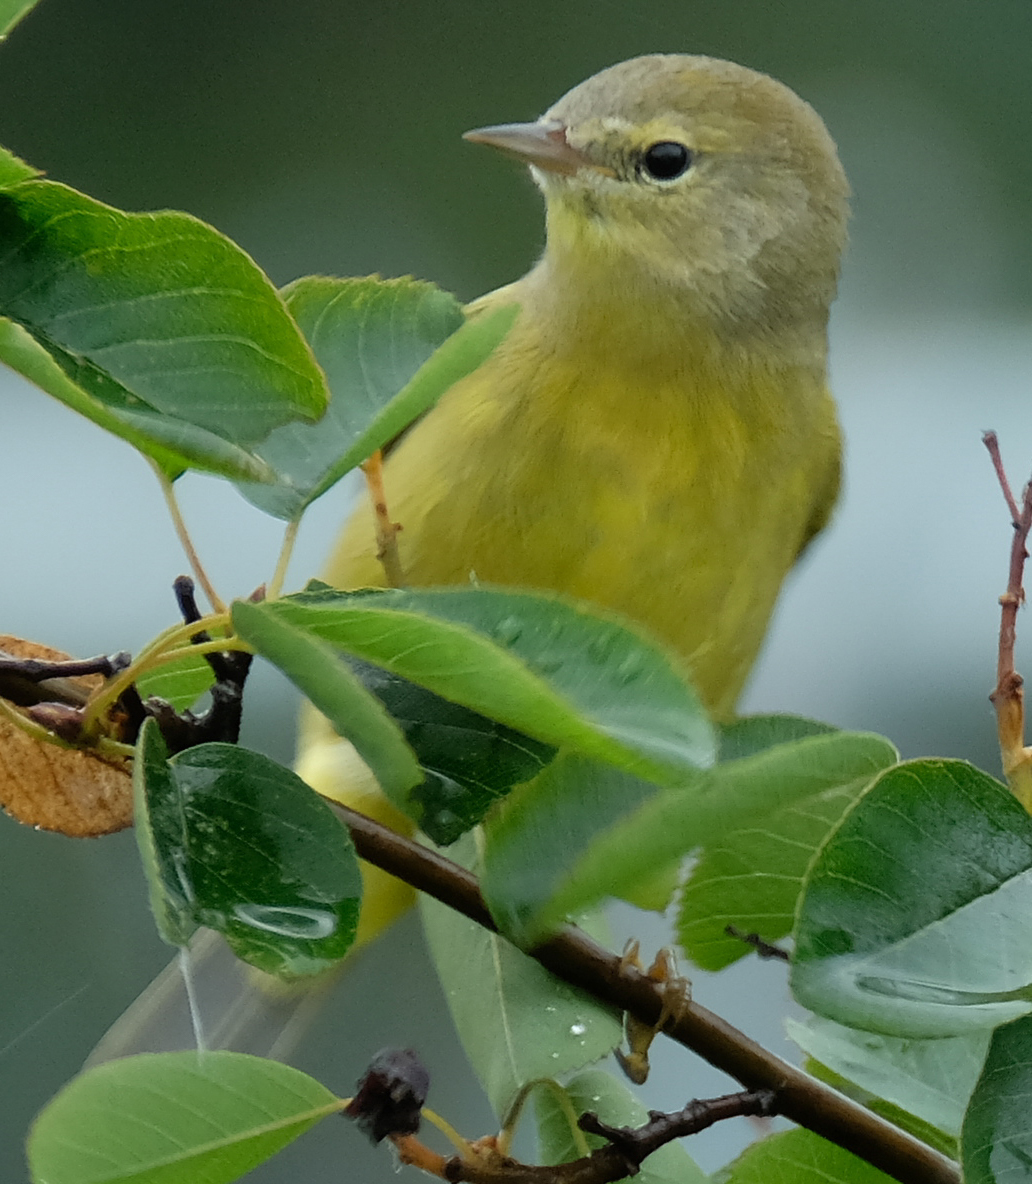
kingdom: Animalia
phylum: Chordata
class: Aves
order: Passeriformes
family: Parulidae
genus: Leiothlypis
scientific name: Leiothlypis celata
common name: Orange-crowned warbler
